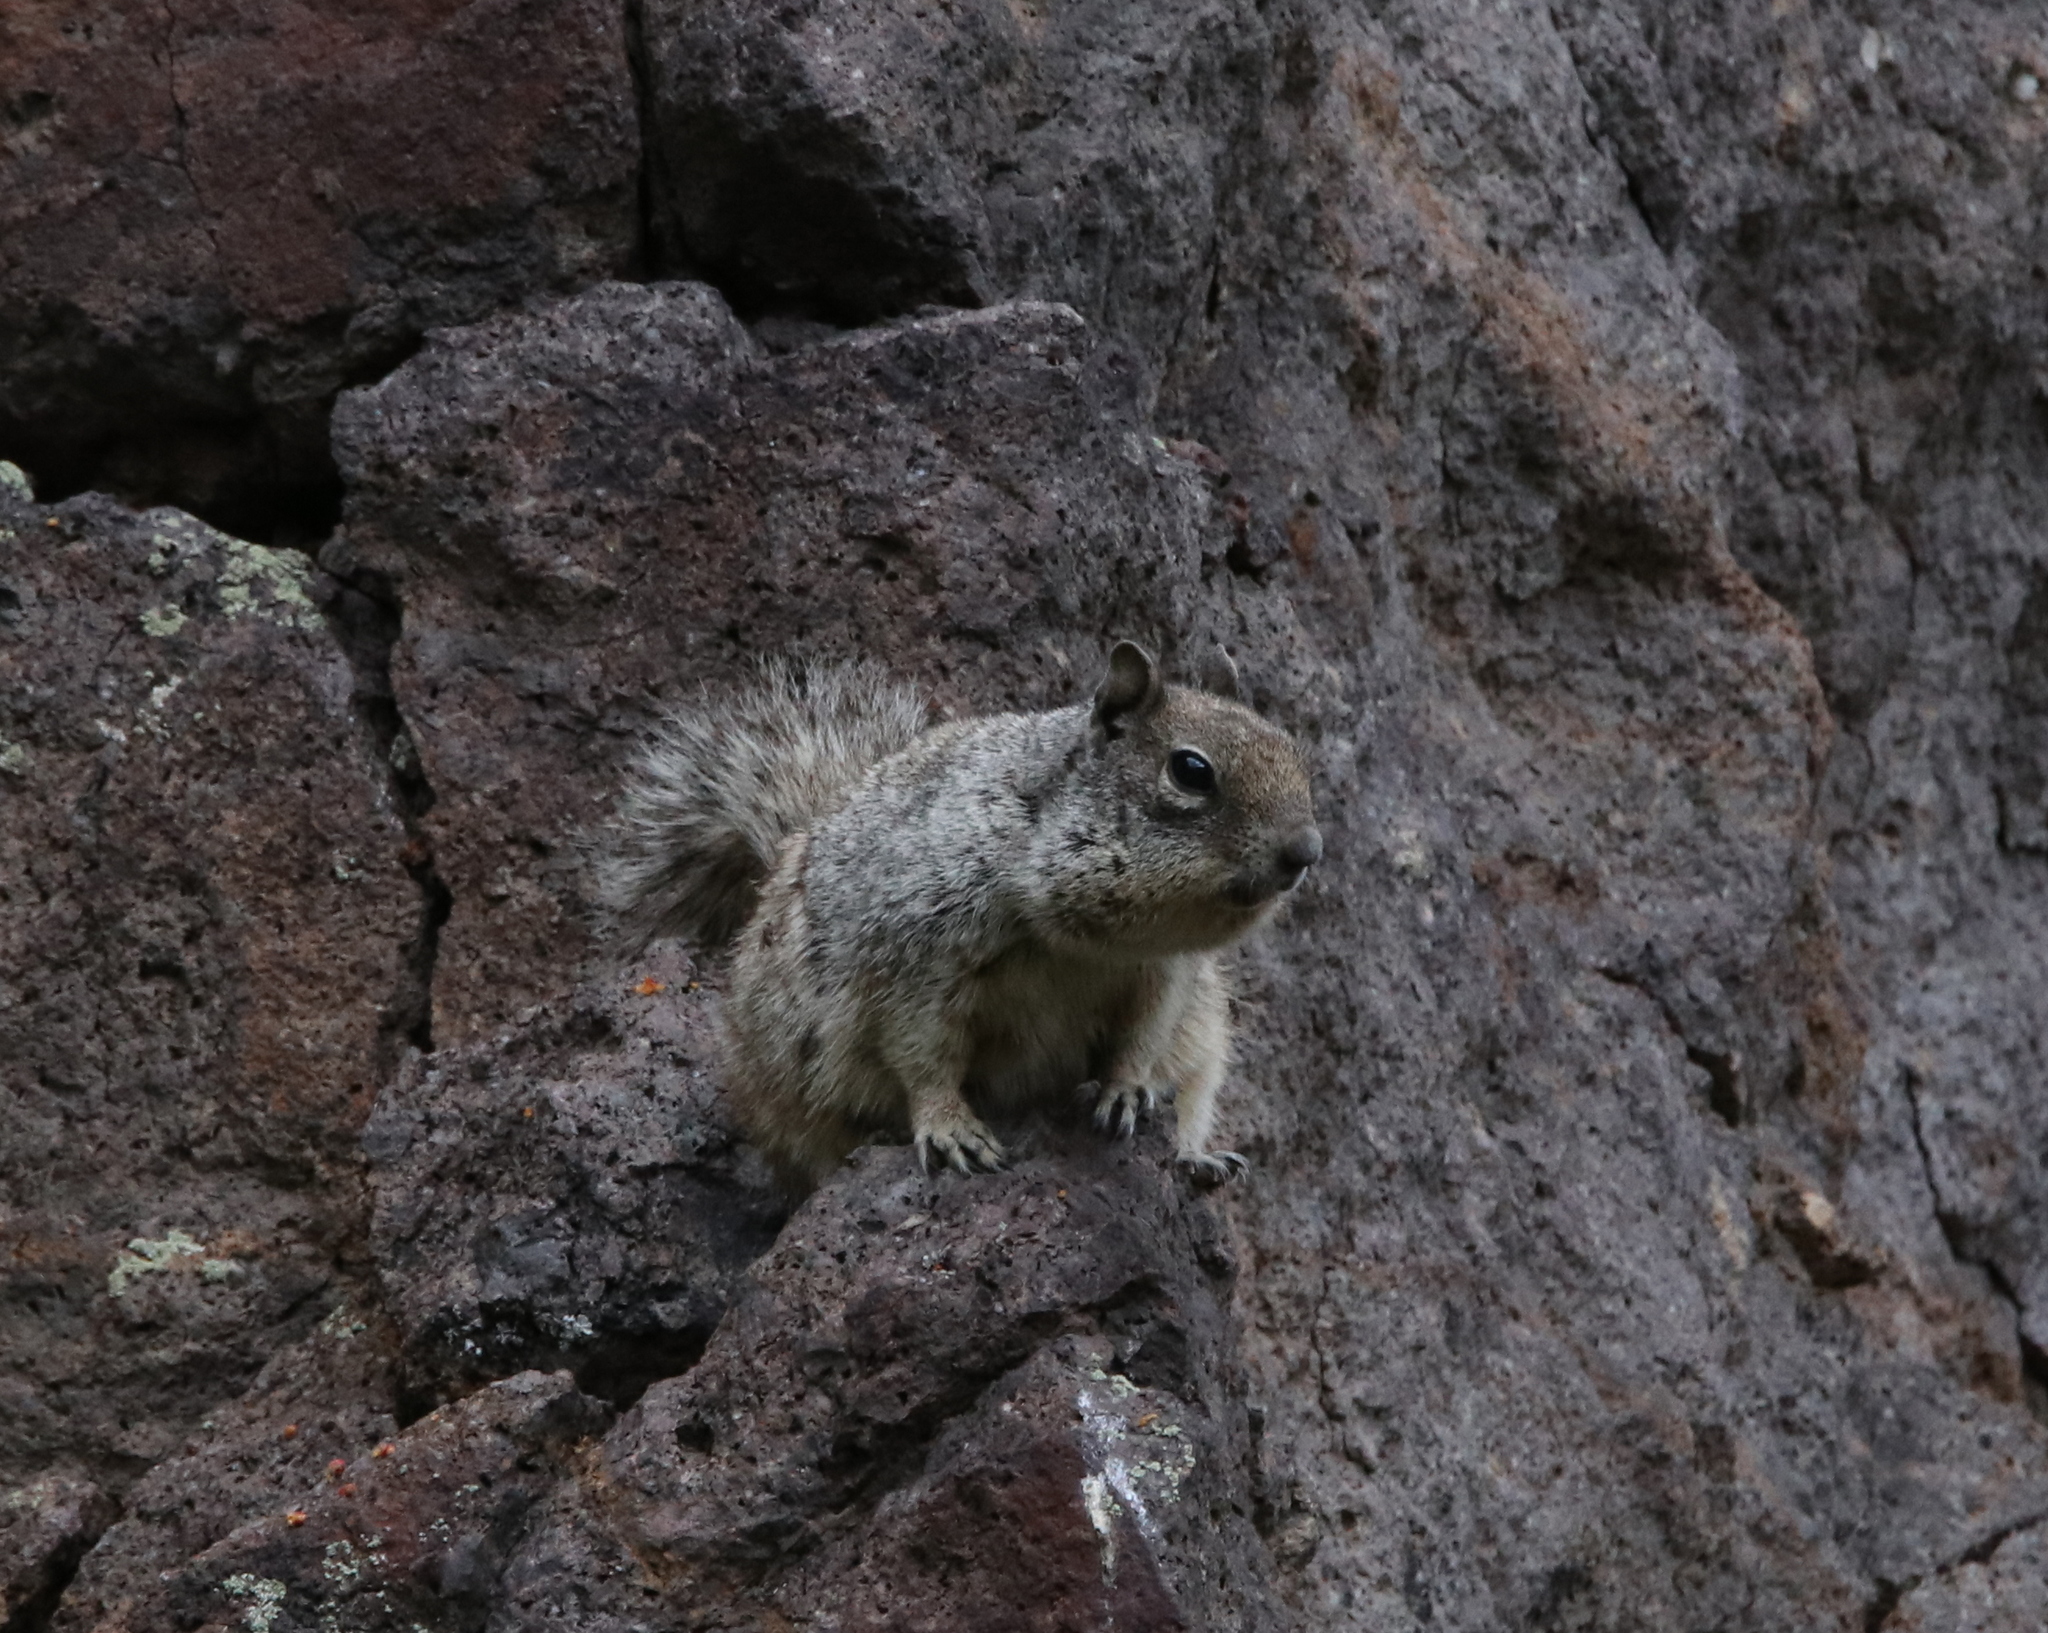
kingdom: Animalia
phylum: Chordata
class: Mammalia
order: Rodentia
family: Sciuridae
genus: Otospermophilus
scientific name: Otospermophilus variegatus
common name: Rock squirrel
